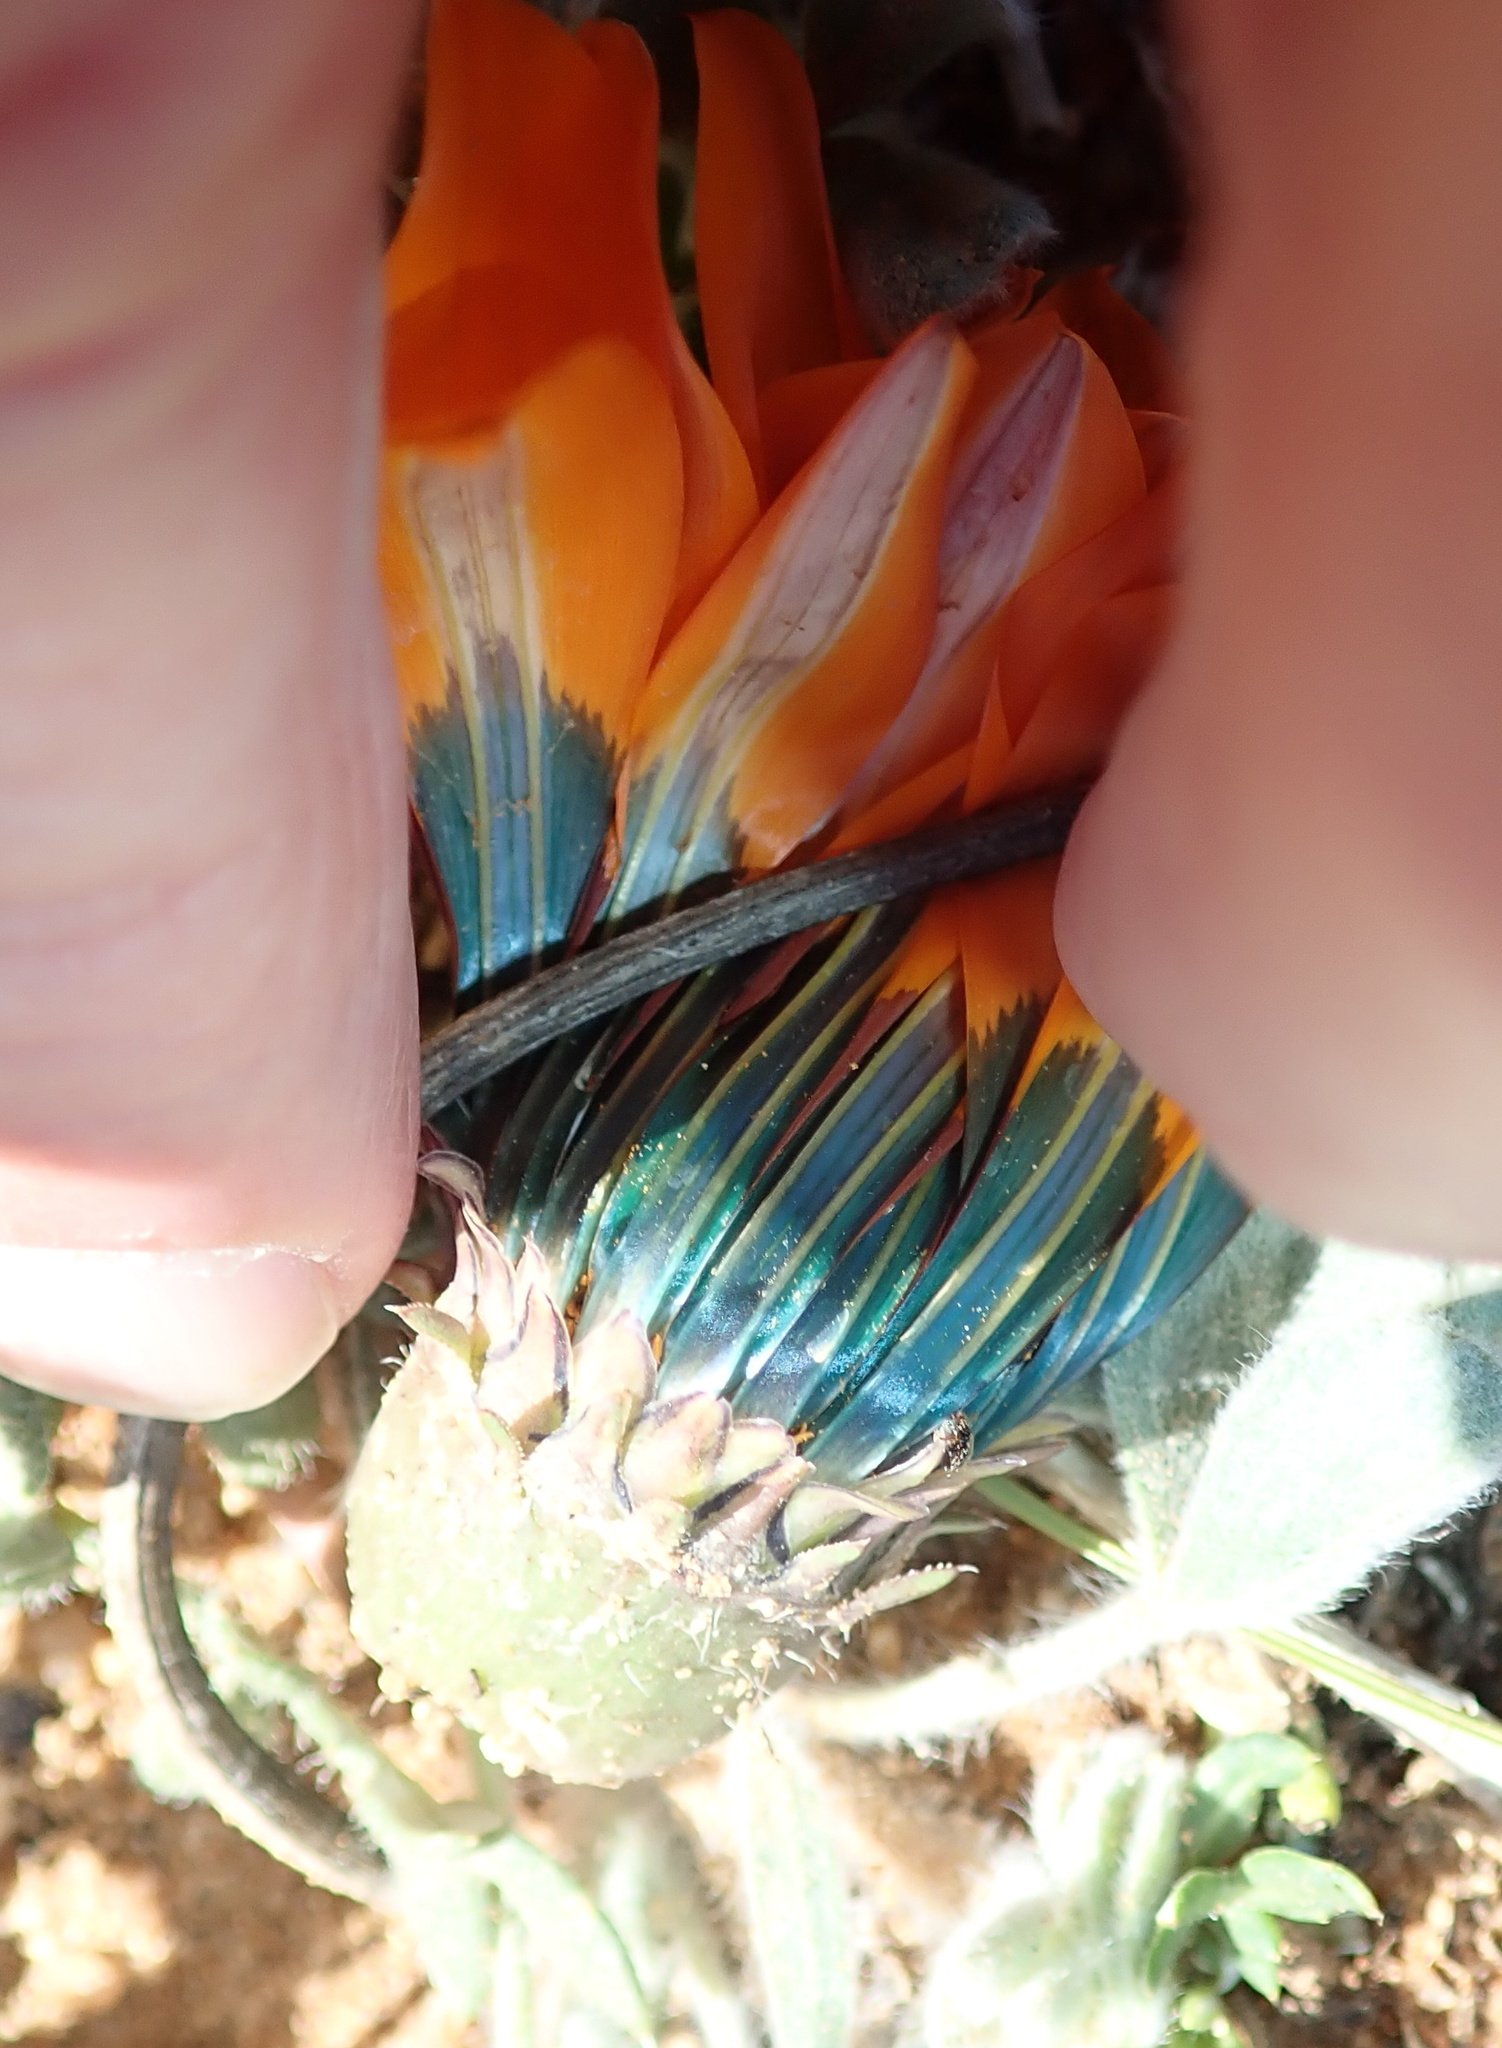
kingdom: Plantae
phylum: Tracheophyta
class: Magnoliopsida
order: Asterales
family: Asteraceae
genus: Gazania
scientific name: Gazania leiopoda
